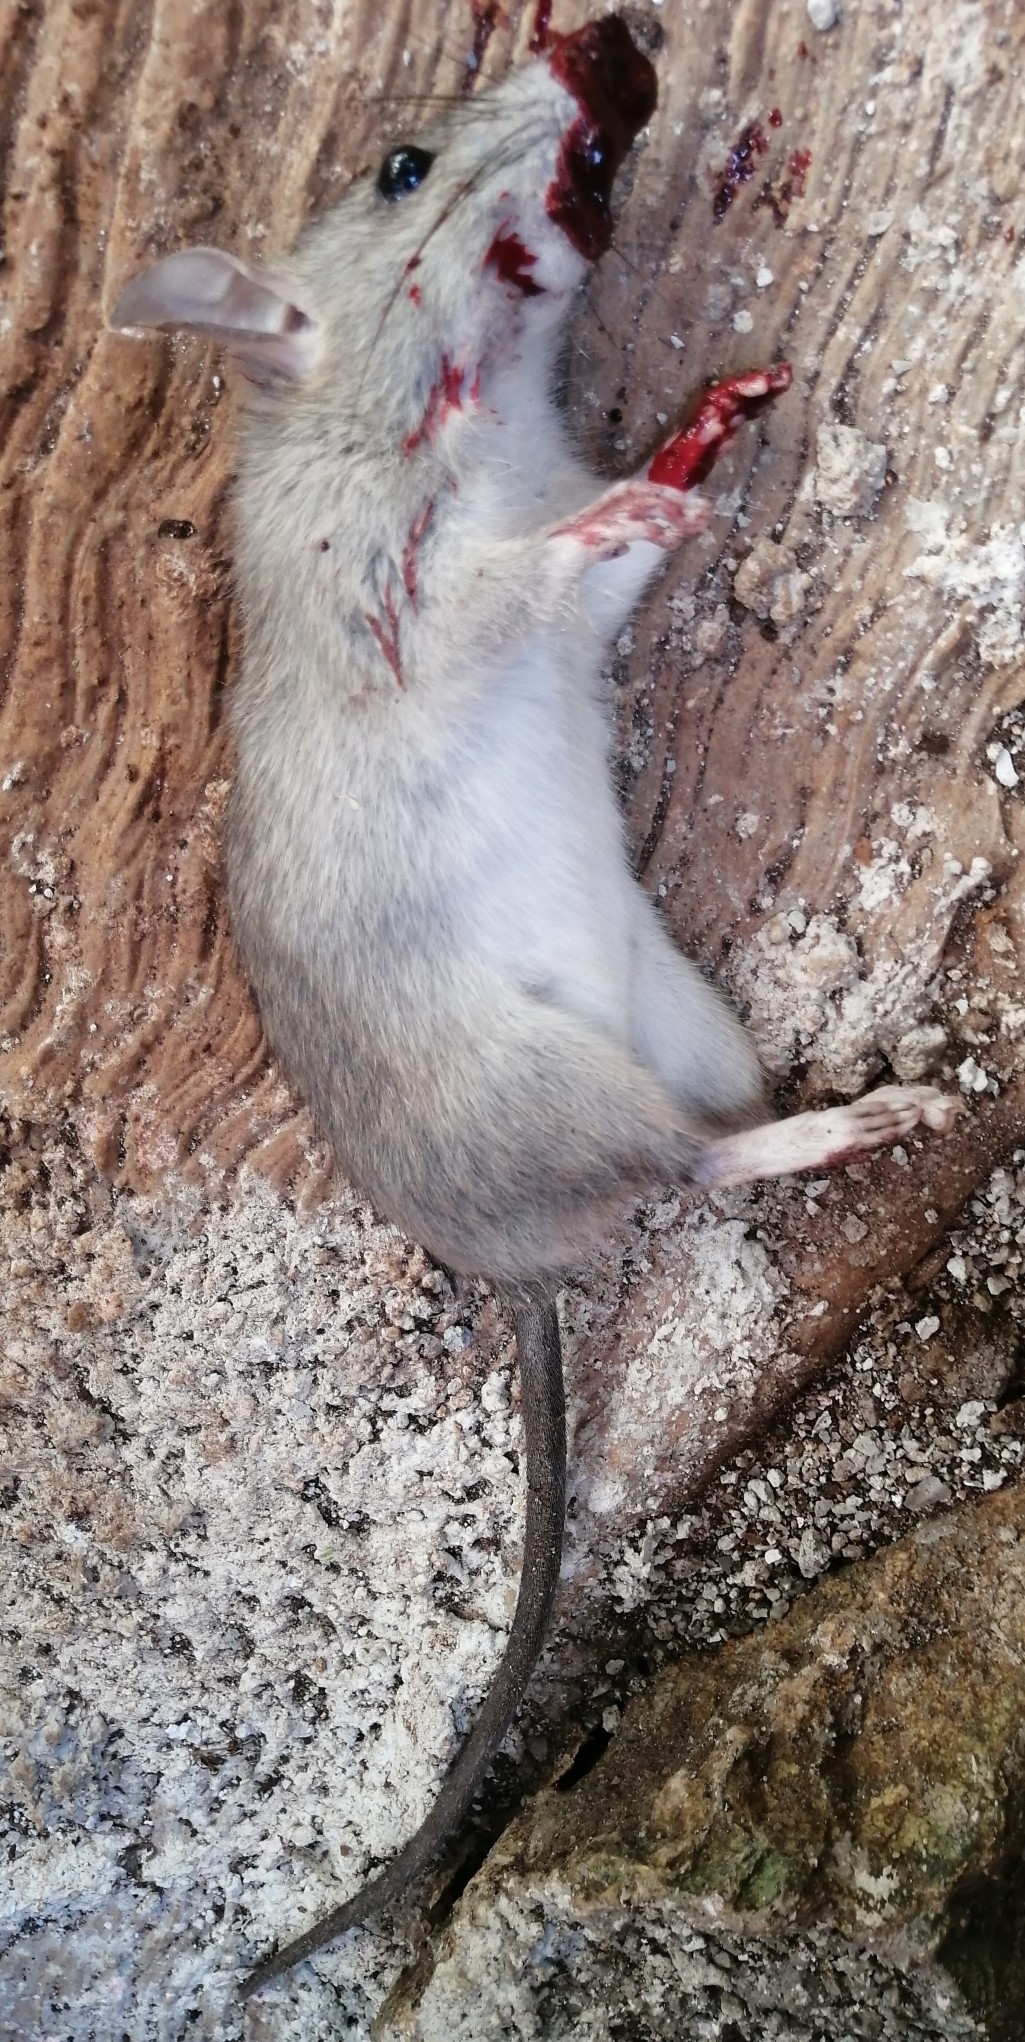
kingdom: Animalia
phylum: Chordata
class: Mammalia
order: Rodentia
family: Muridae
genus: Rattus
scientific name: Rattus rattus
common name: Black rat
